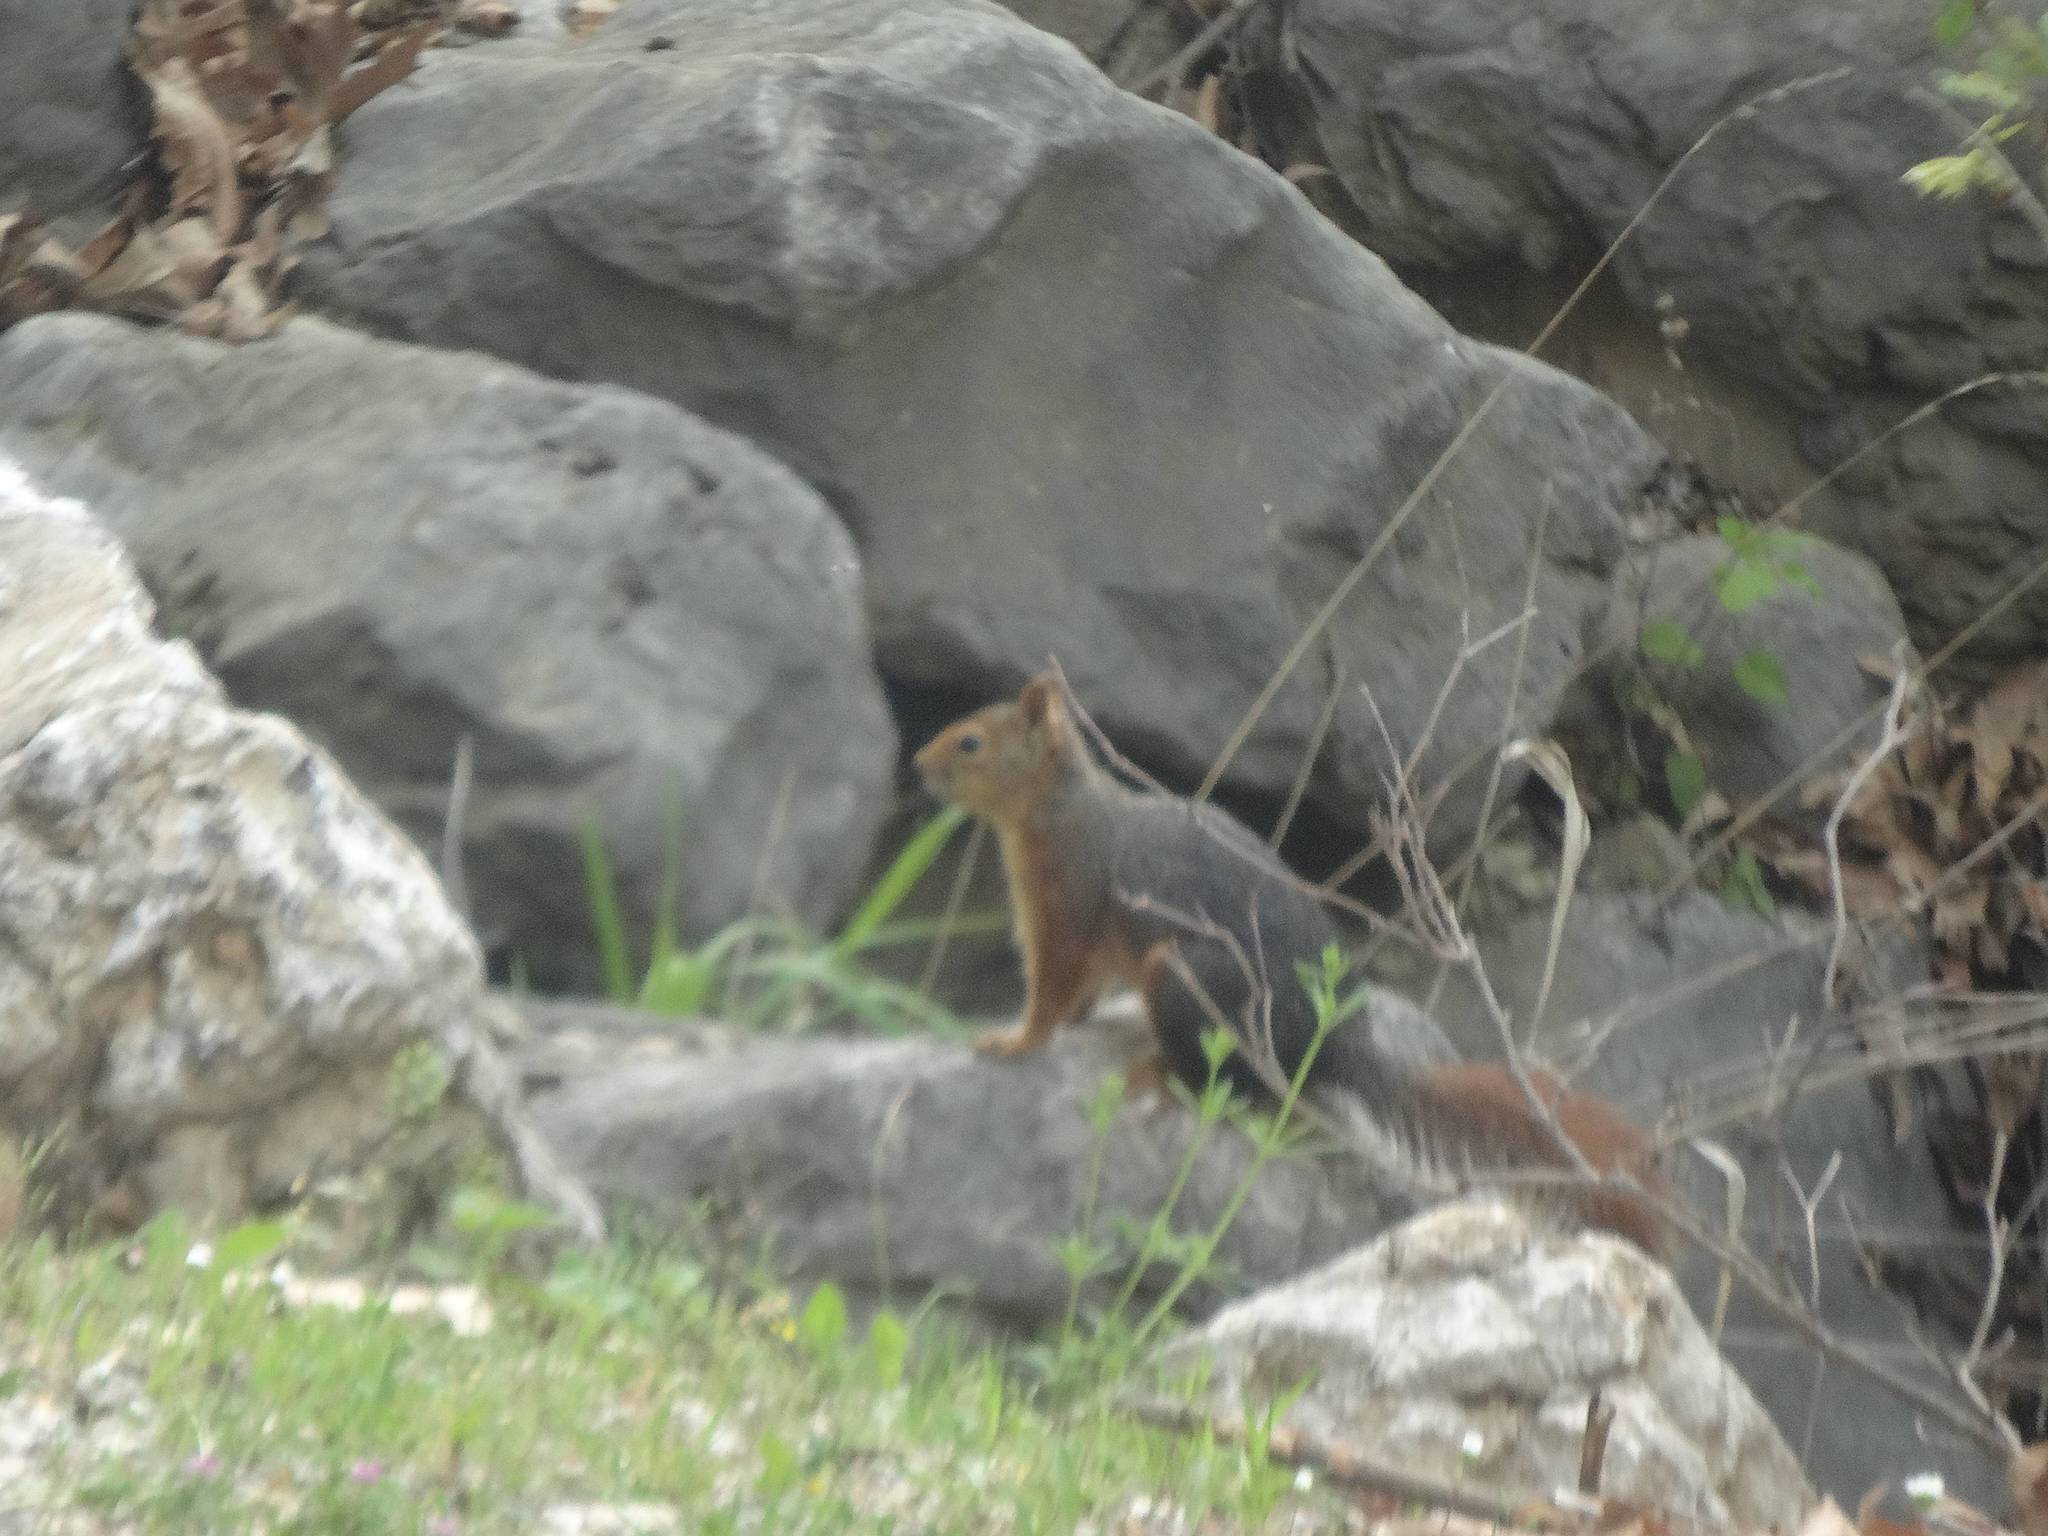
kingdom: Animalia
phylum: Chordata
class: Mammalia
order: Rodentia
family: Sciuridae
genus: Sciurus
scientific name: Sciurus anomalus
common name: Caucasian squirrel
